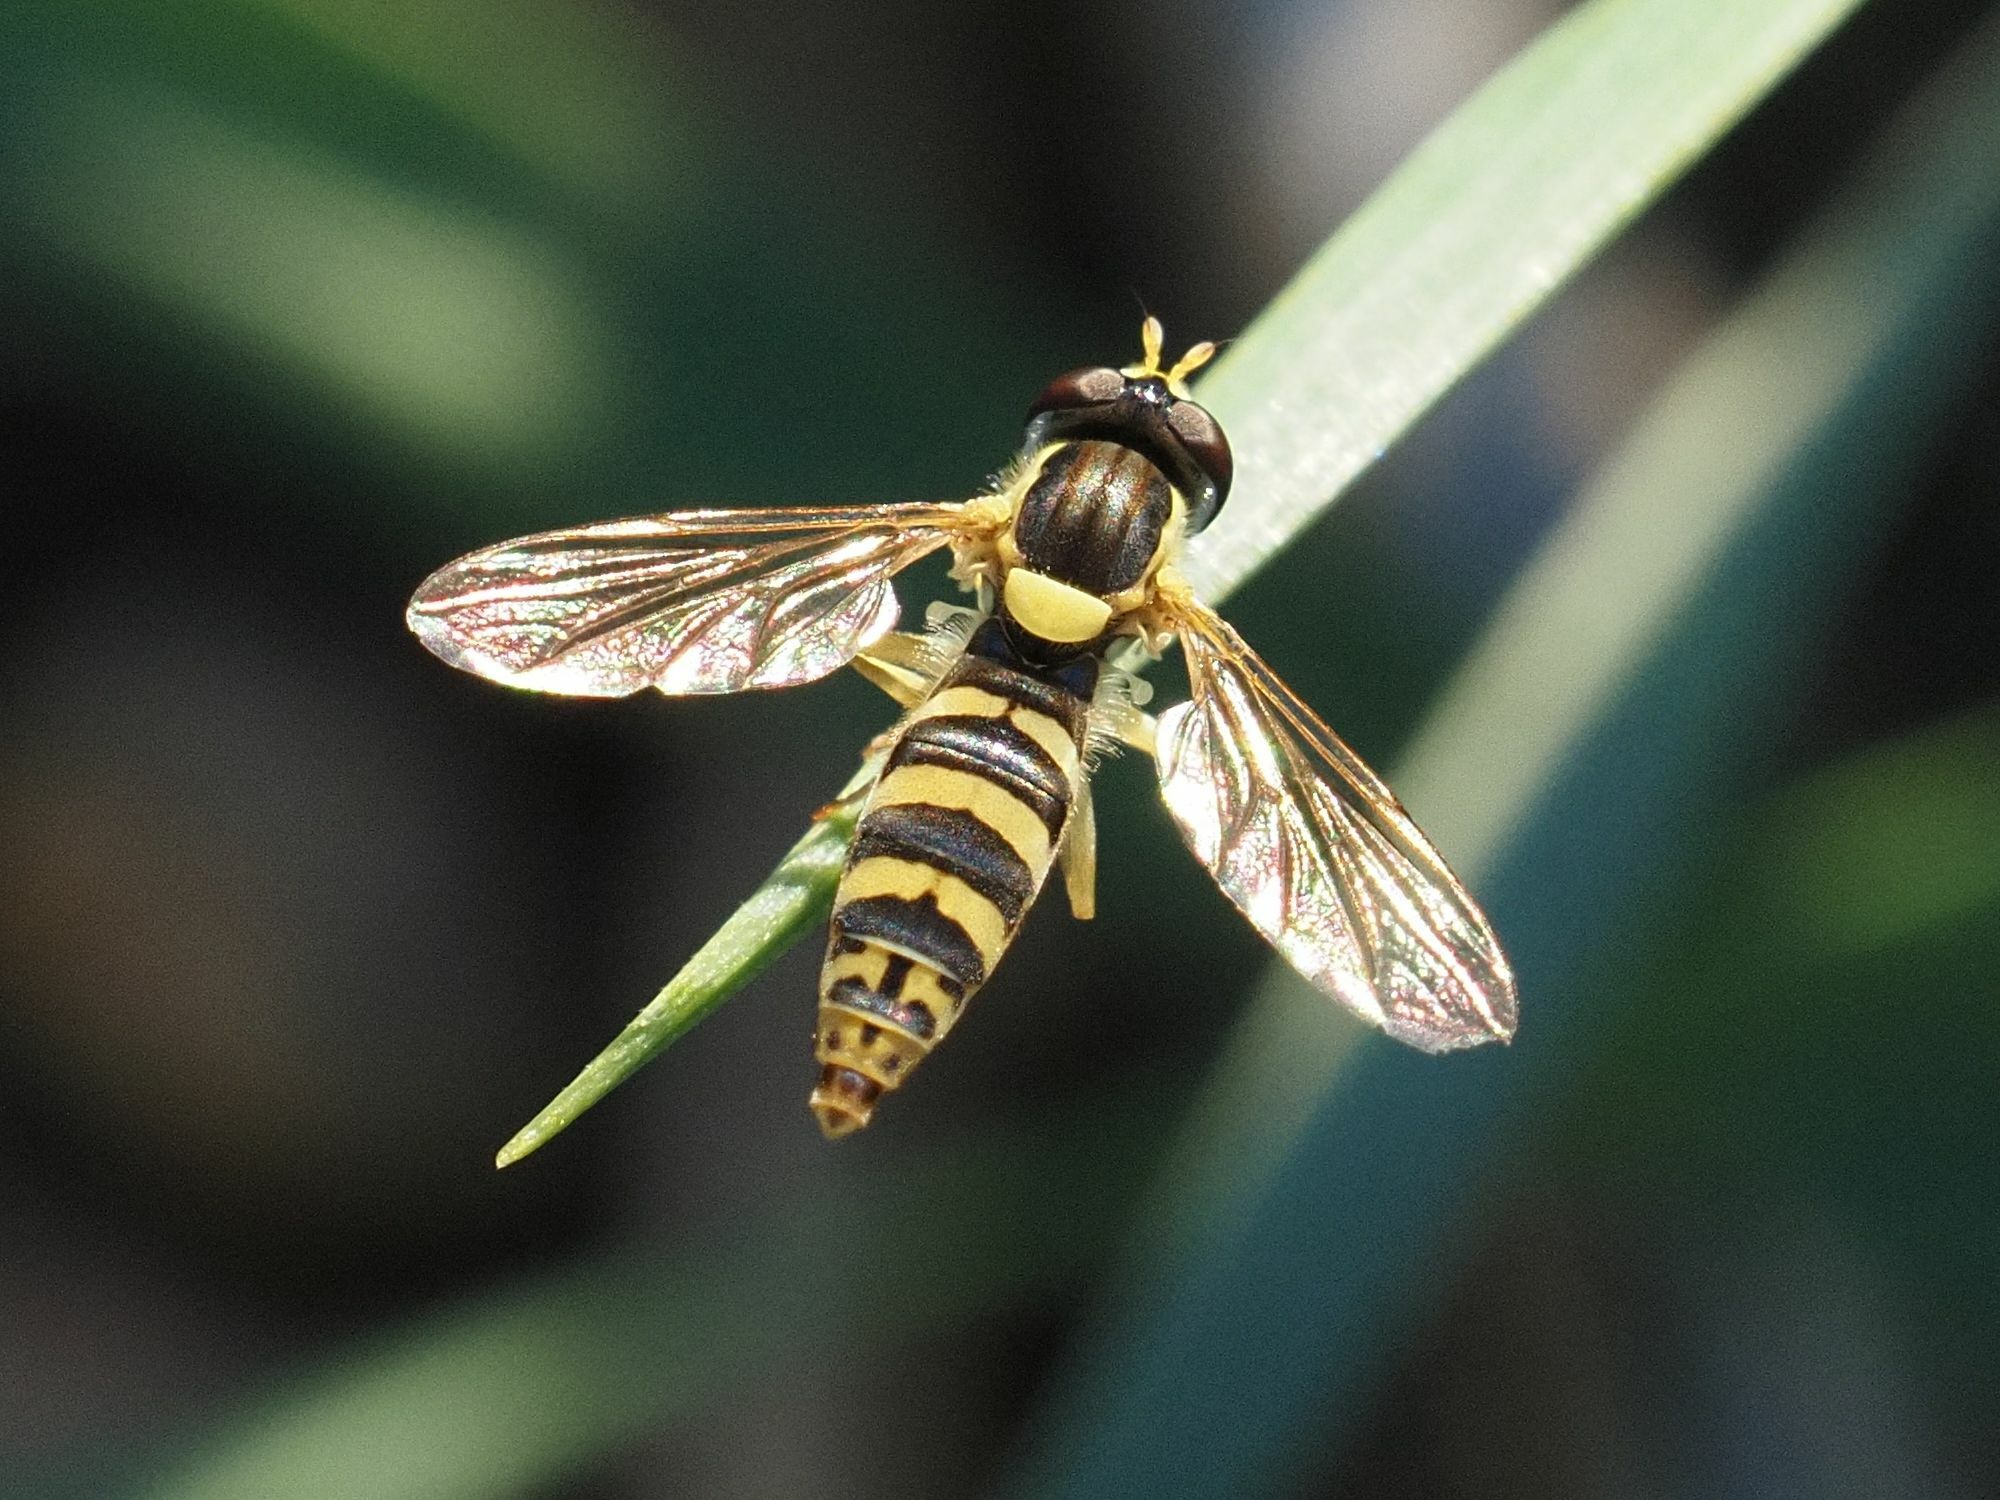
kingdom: Animalia
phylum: Arthropoda
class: Insecta
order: Diptera
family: Syrphidae
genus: Sphaerophoria
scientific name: Sphaerophoria
